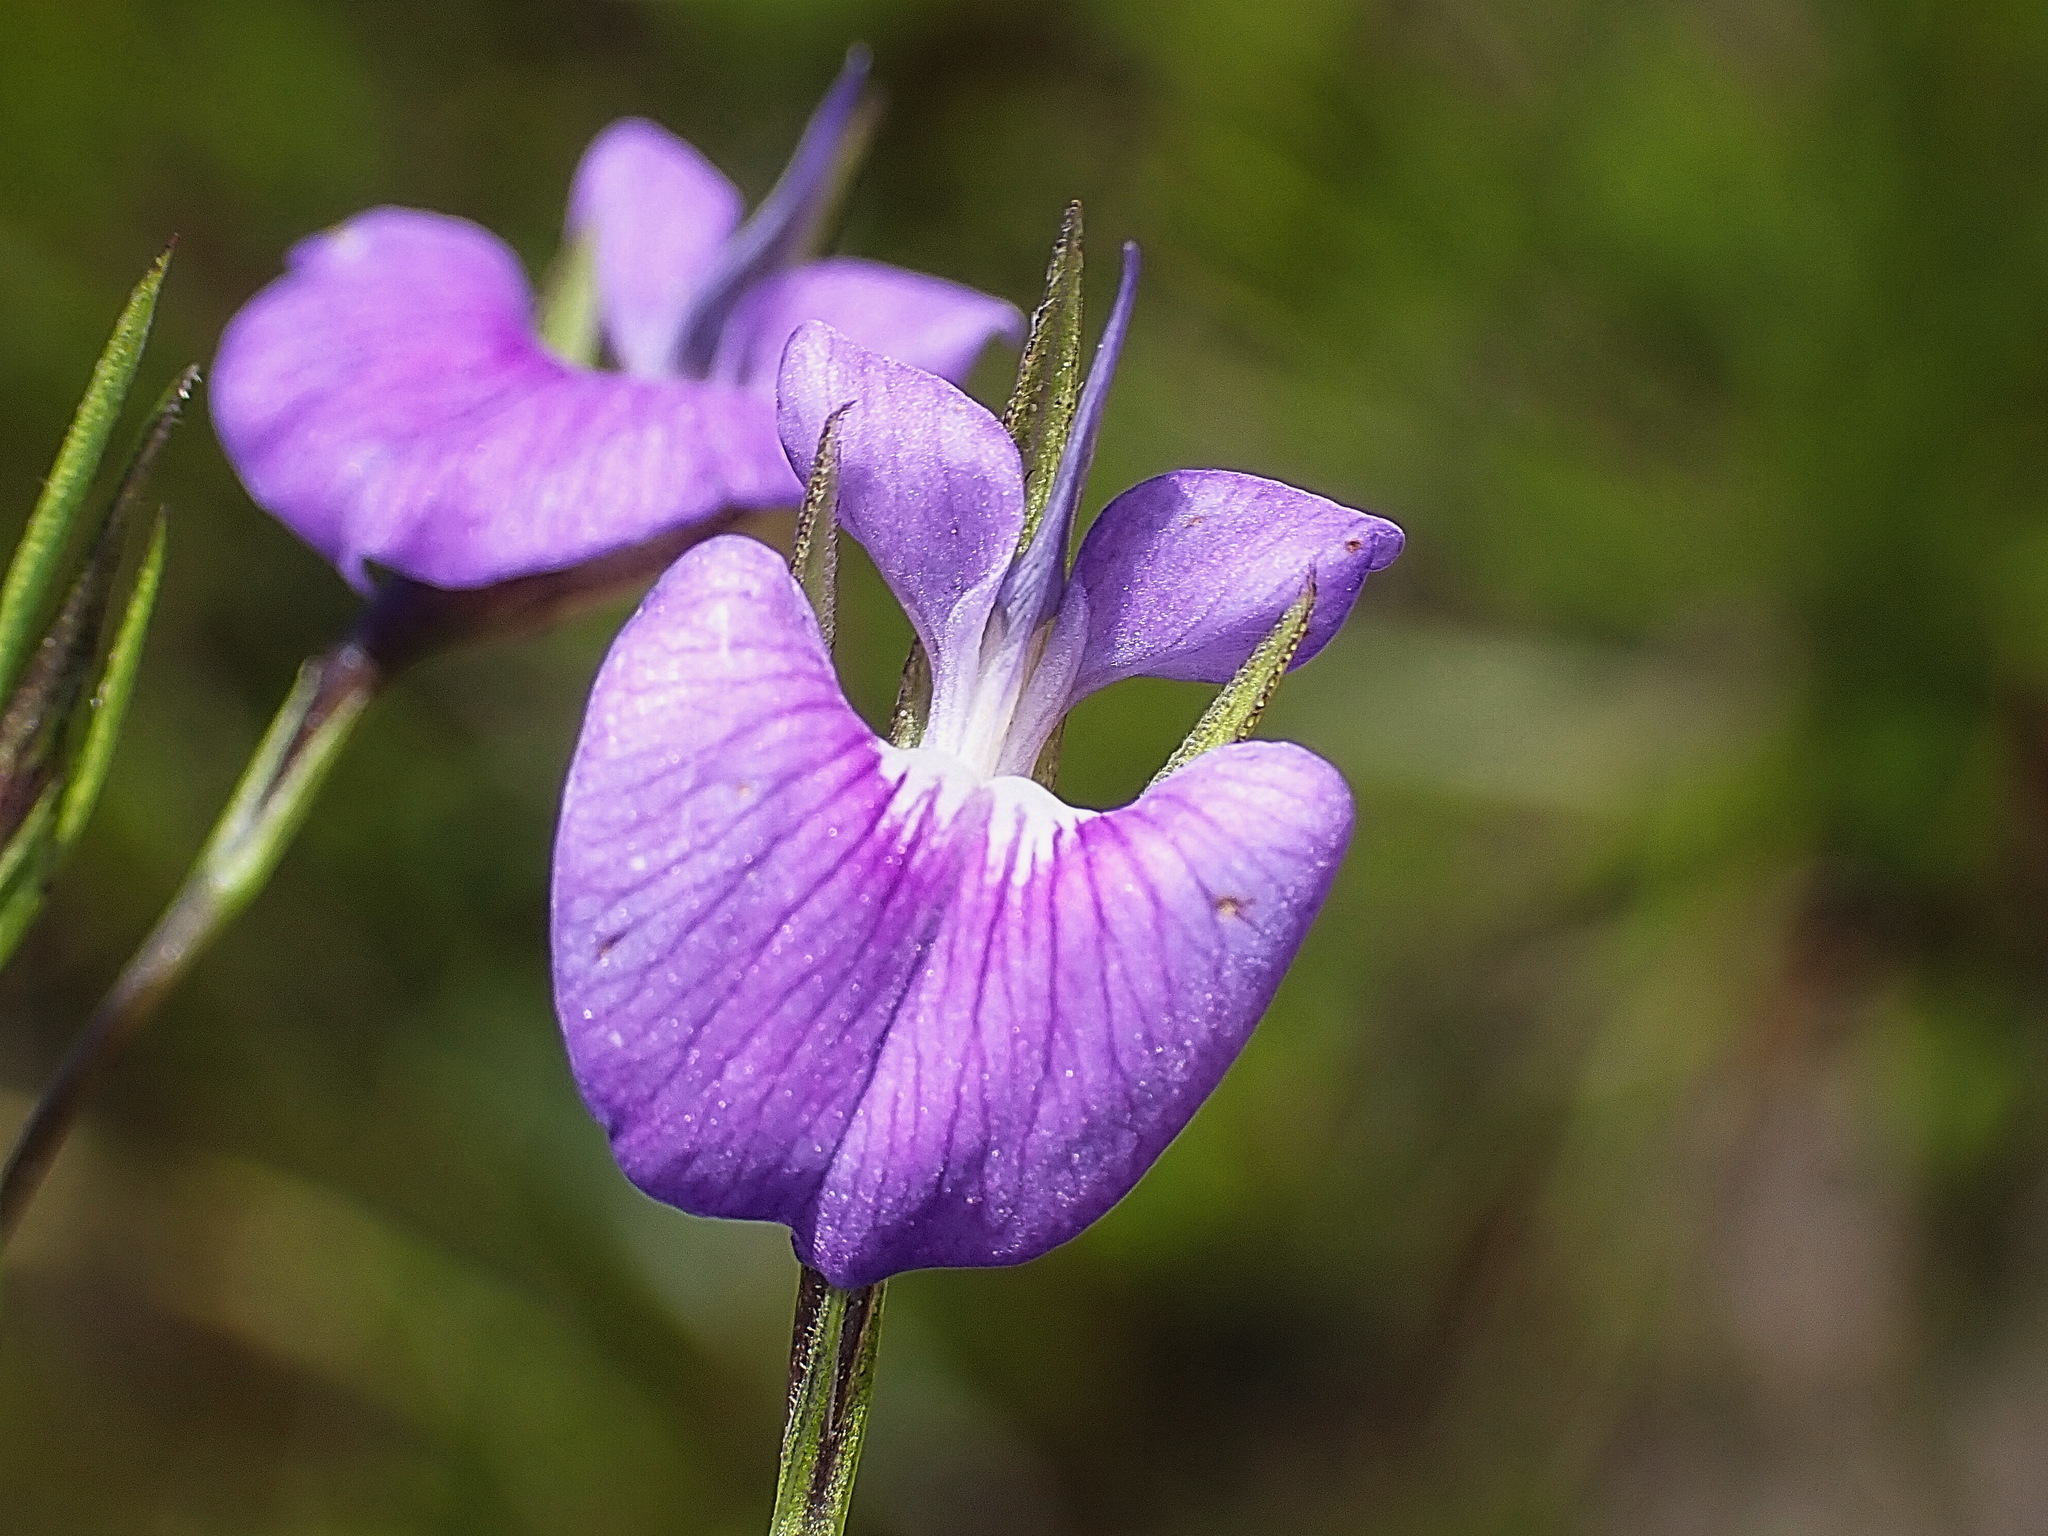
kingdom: Plantae
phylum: Tracheophyta
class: Magnoliopsida
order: Fabales
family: Fabaceae
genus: Psoralea
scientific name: Psoralea trullata
